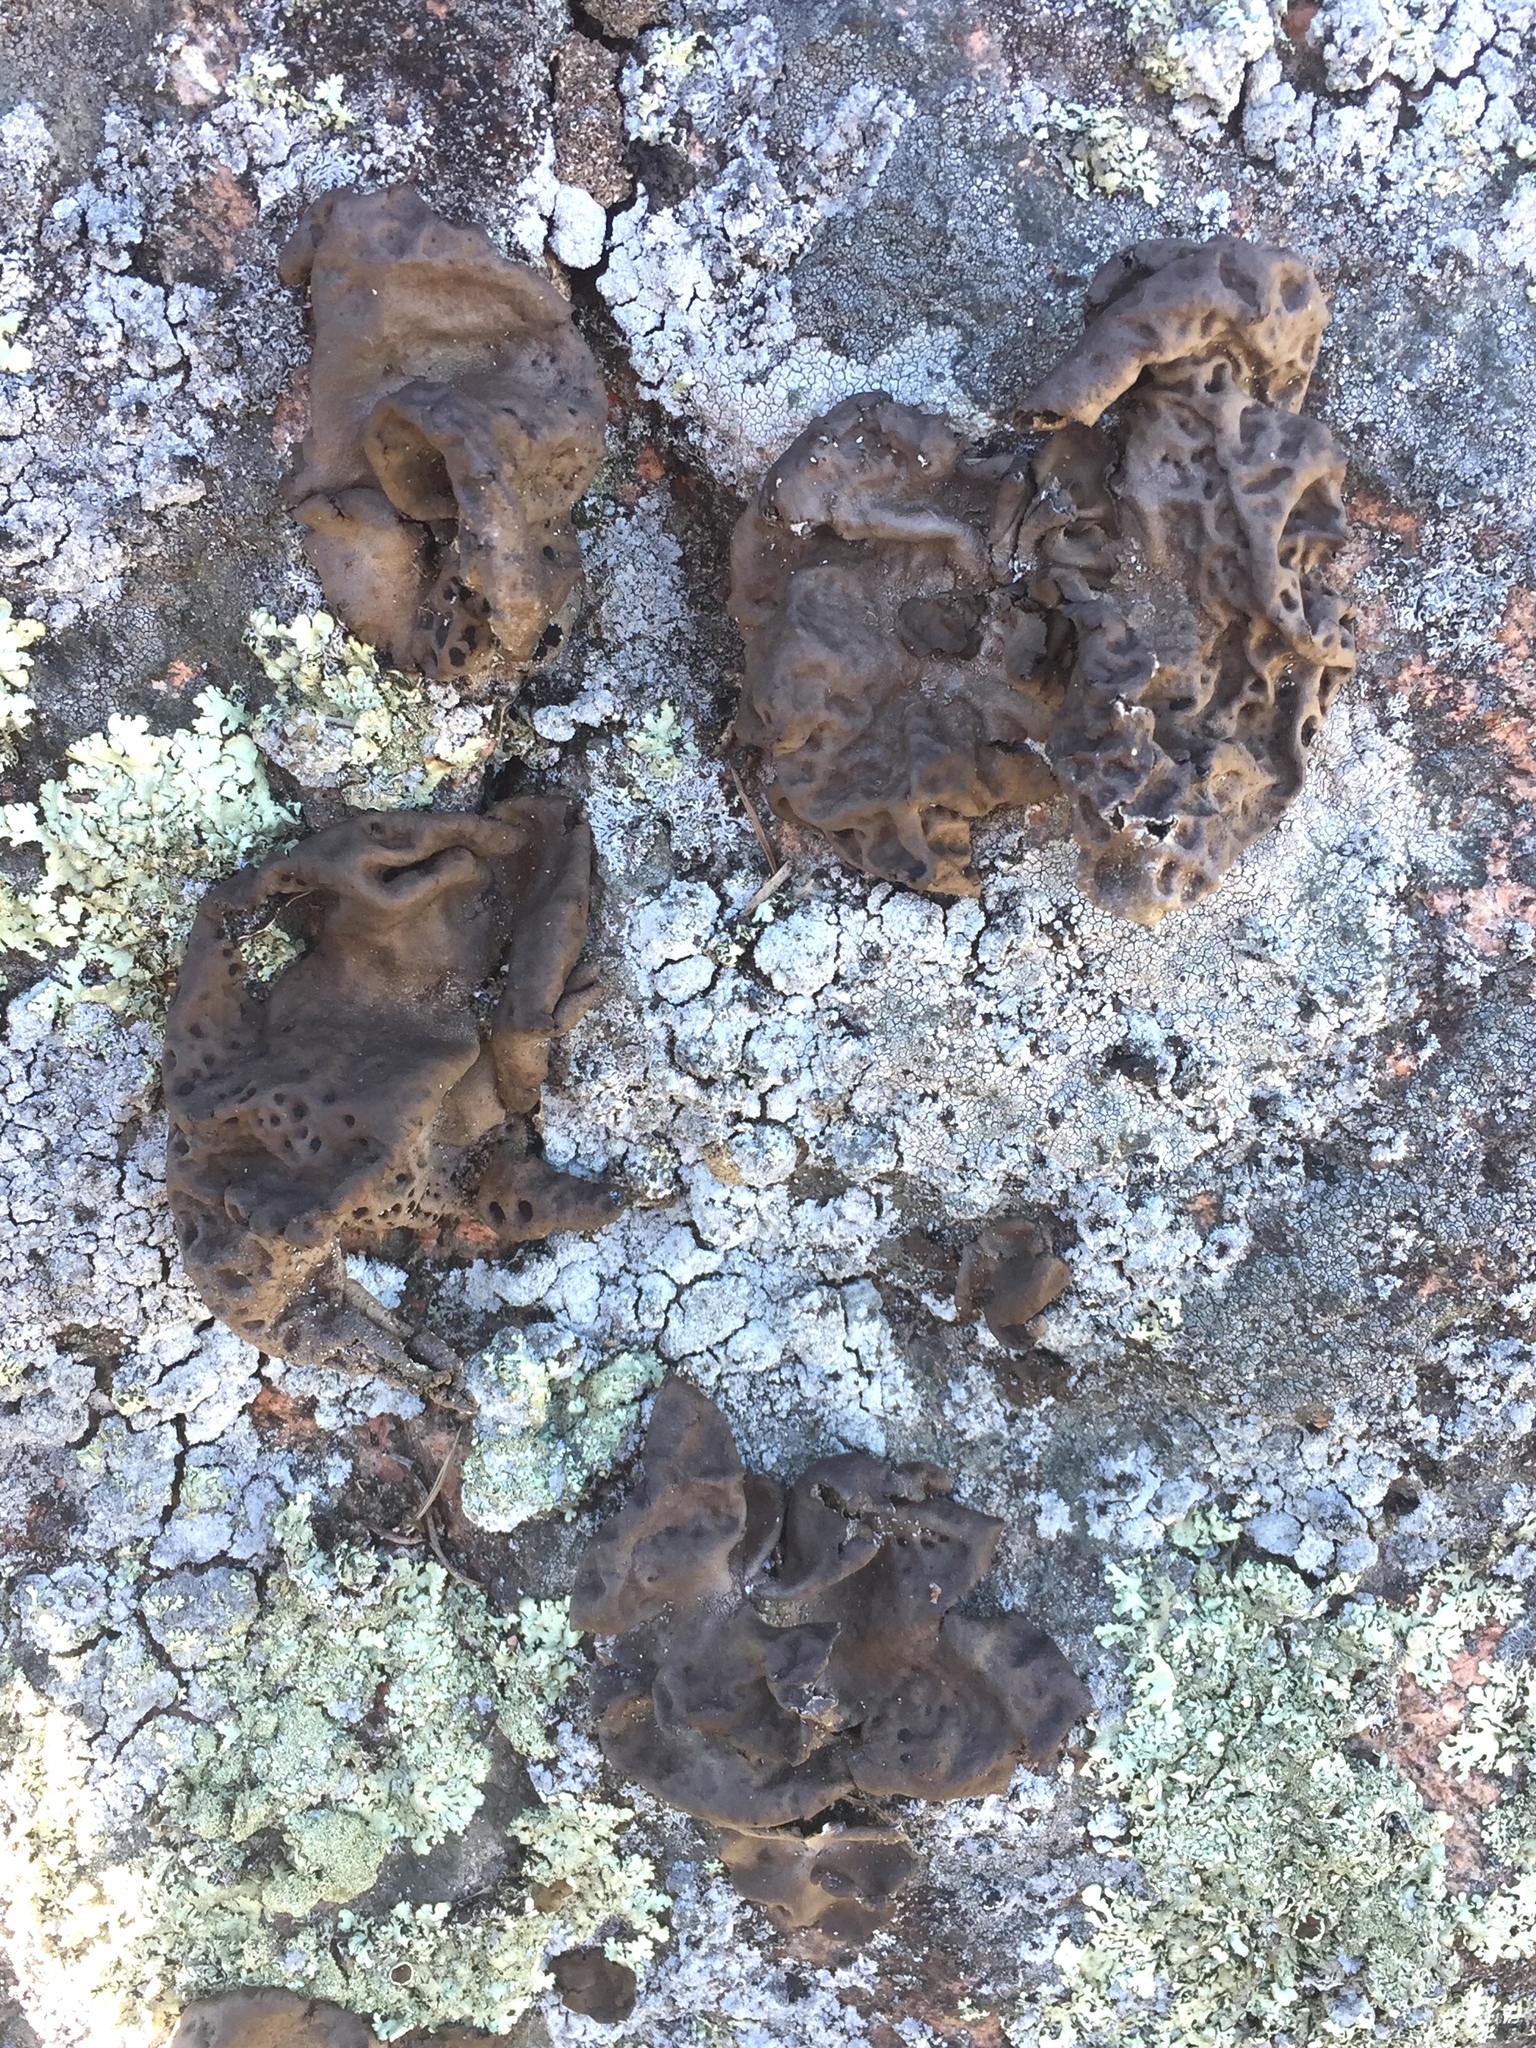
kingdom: Fungi
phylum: Ascomycota
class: Lecanoromycetes
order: Umbilicariales
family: Umbilicariaceae
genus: Umbilicaria
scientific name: Umbilicaria muhlenbergii
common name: Lesser rocktripe
